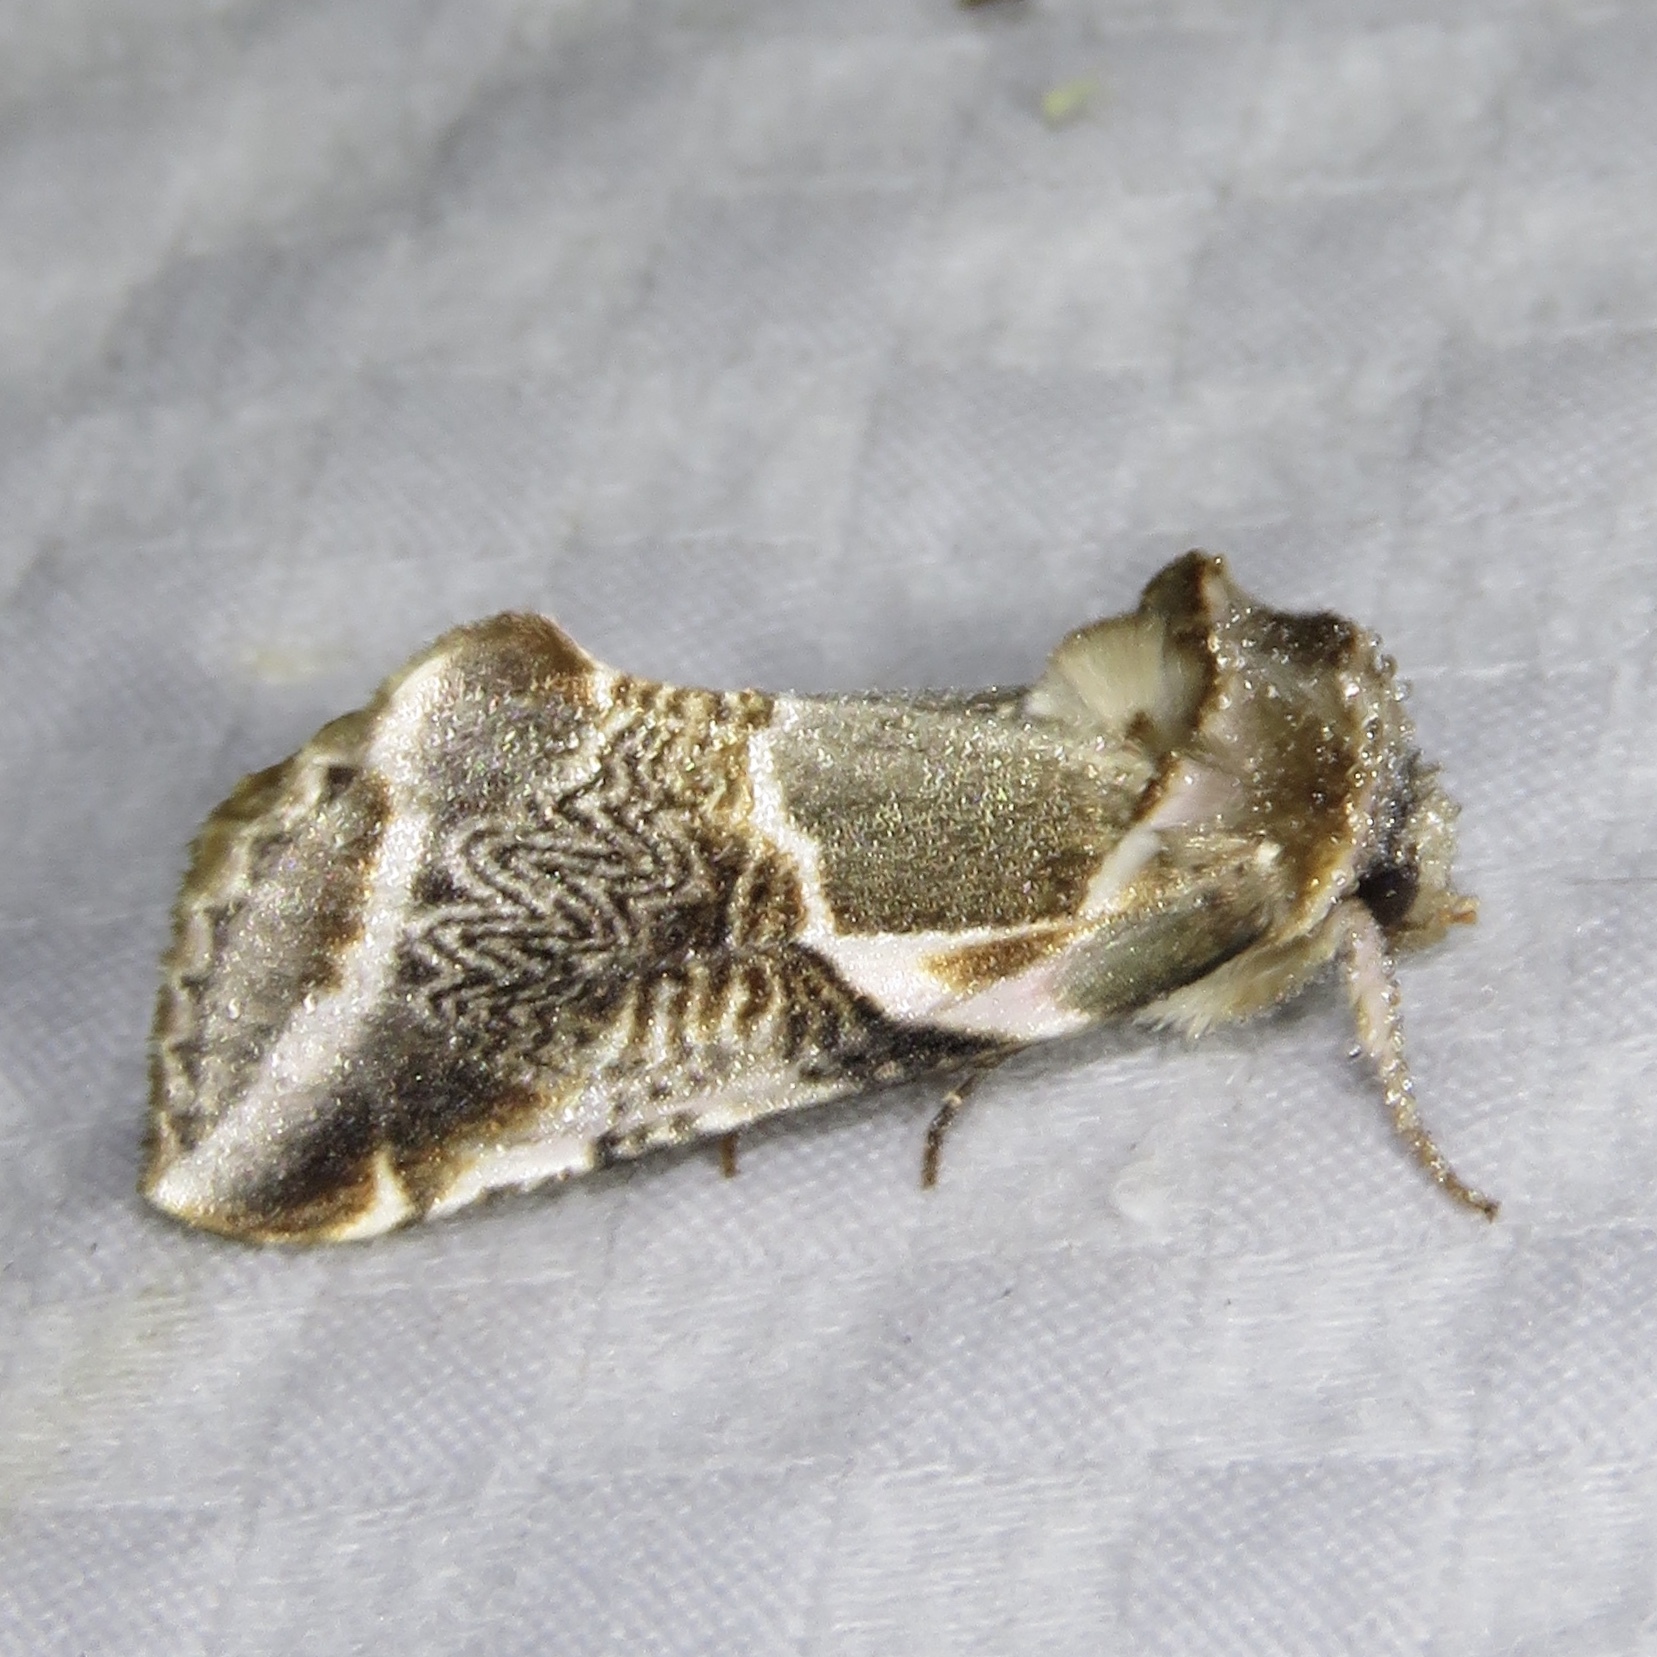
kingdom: Animalia
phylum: Arthropoda
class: Insecta
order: Lepidoptera
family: Drepanidae
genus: Habrosyne
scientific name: Habrosyne scripta
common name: Lettered habrosyne moth
